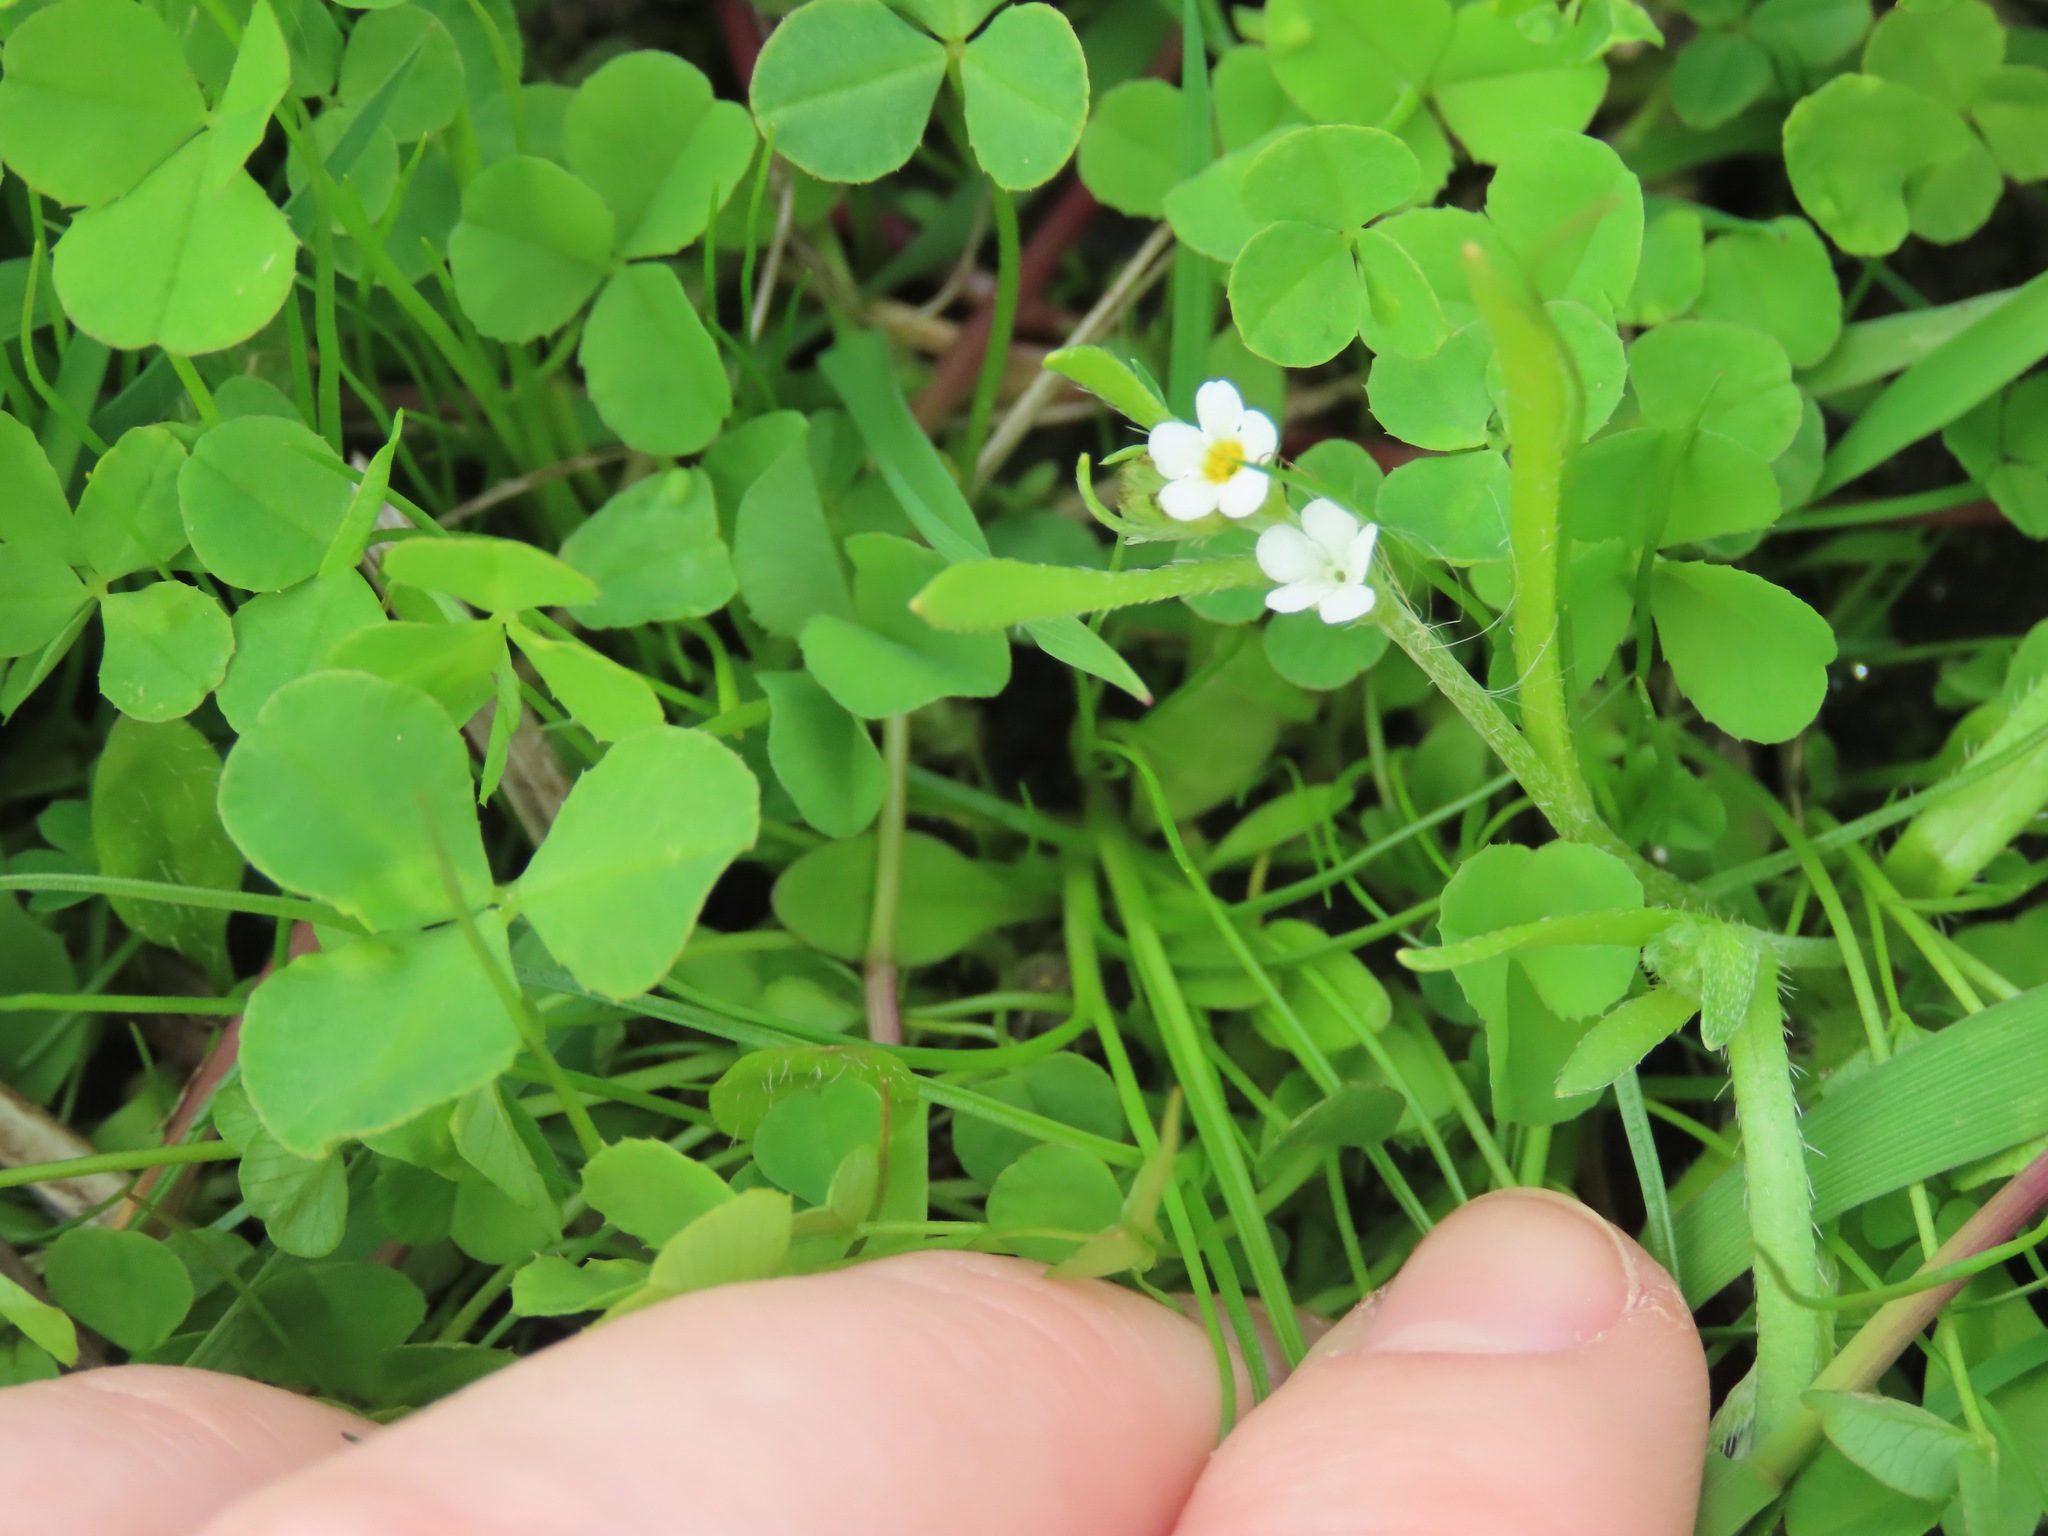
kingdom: Plantae
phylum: Tracheophyta
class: Magnoliopsida
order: Boraginales
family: Boraginaceae
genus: Plagiobothrys
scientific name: Plagiobothrys scouleri
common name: White forget-me-not
